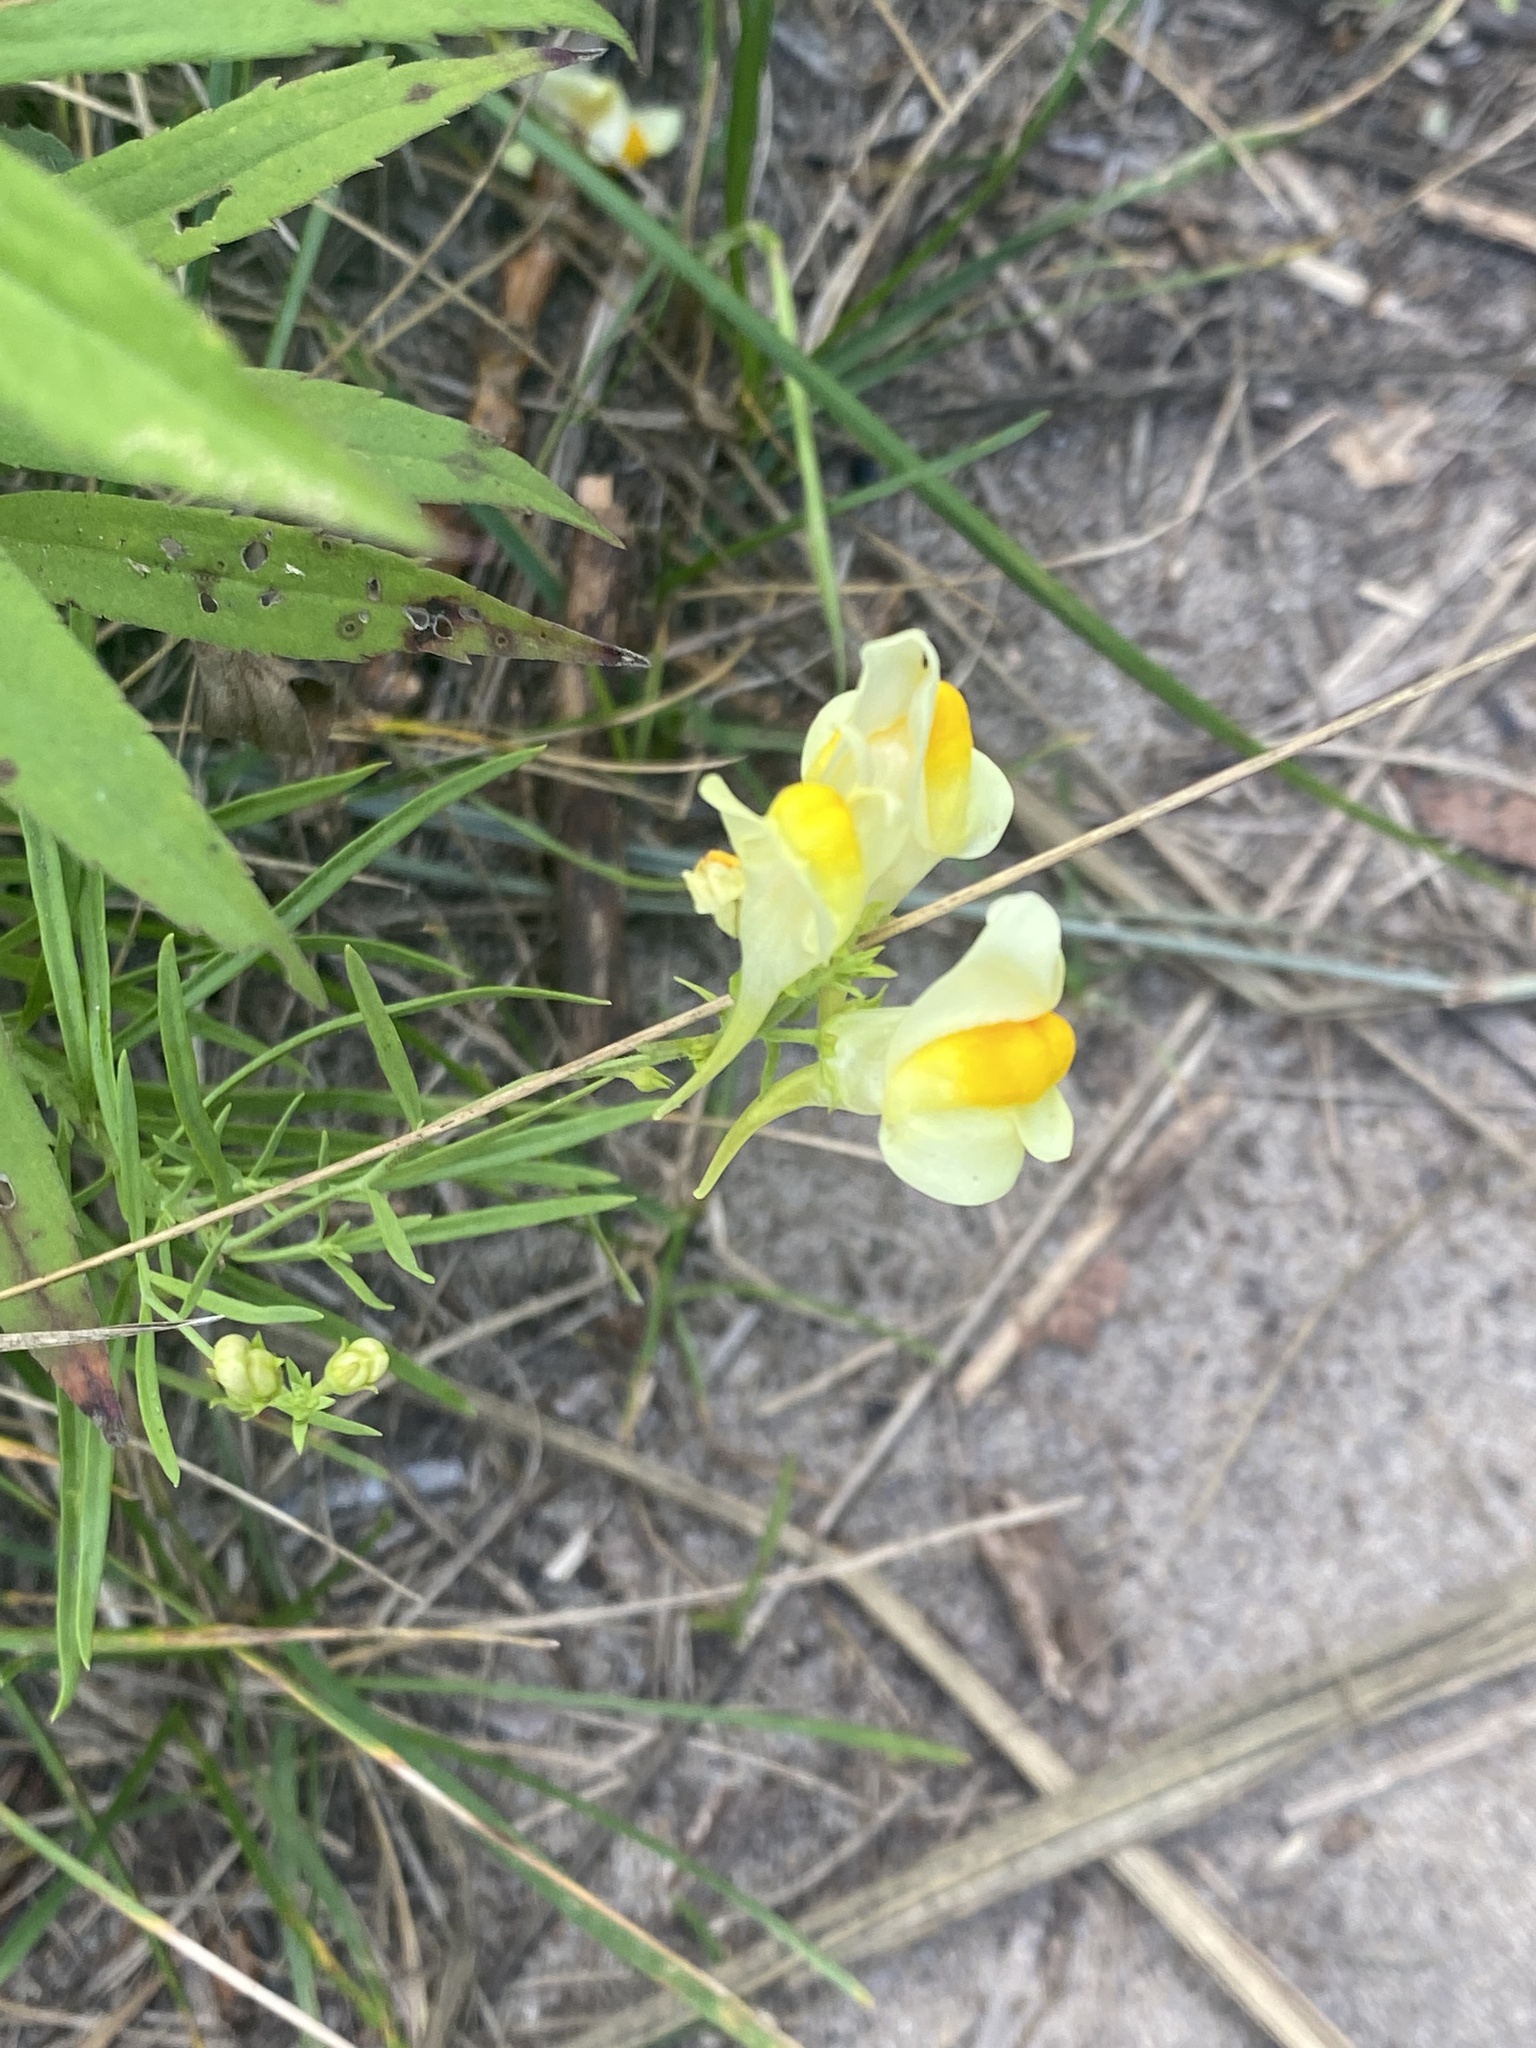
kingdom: Plantae
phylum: Tracheophyta
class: Magnoliopsida
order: Lamiales
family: Plantaginaceae
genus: Linaria
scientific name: Linaria vulgaris
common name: Butter and eggs
